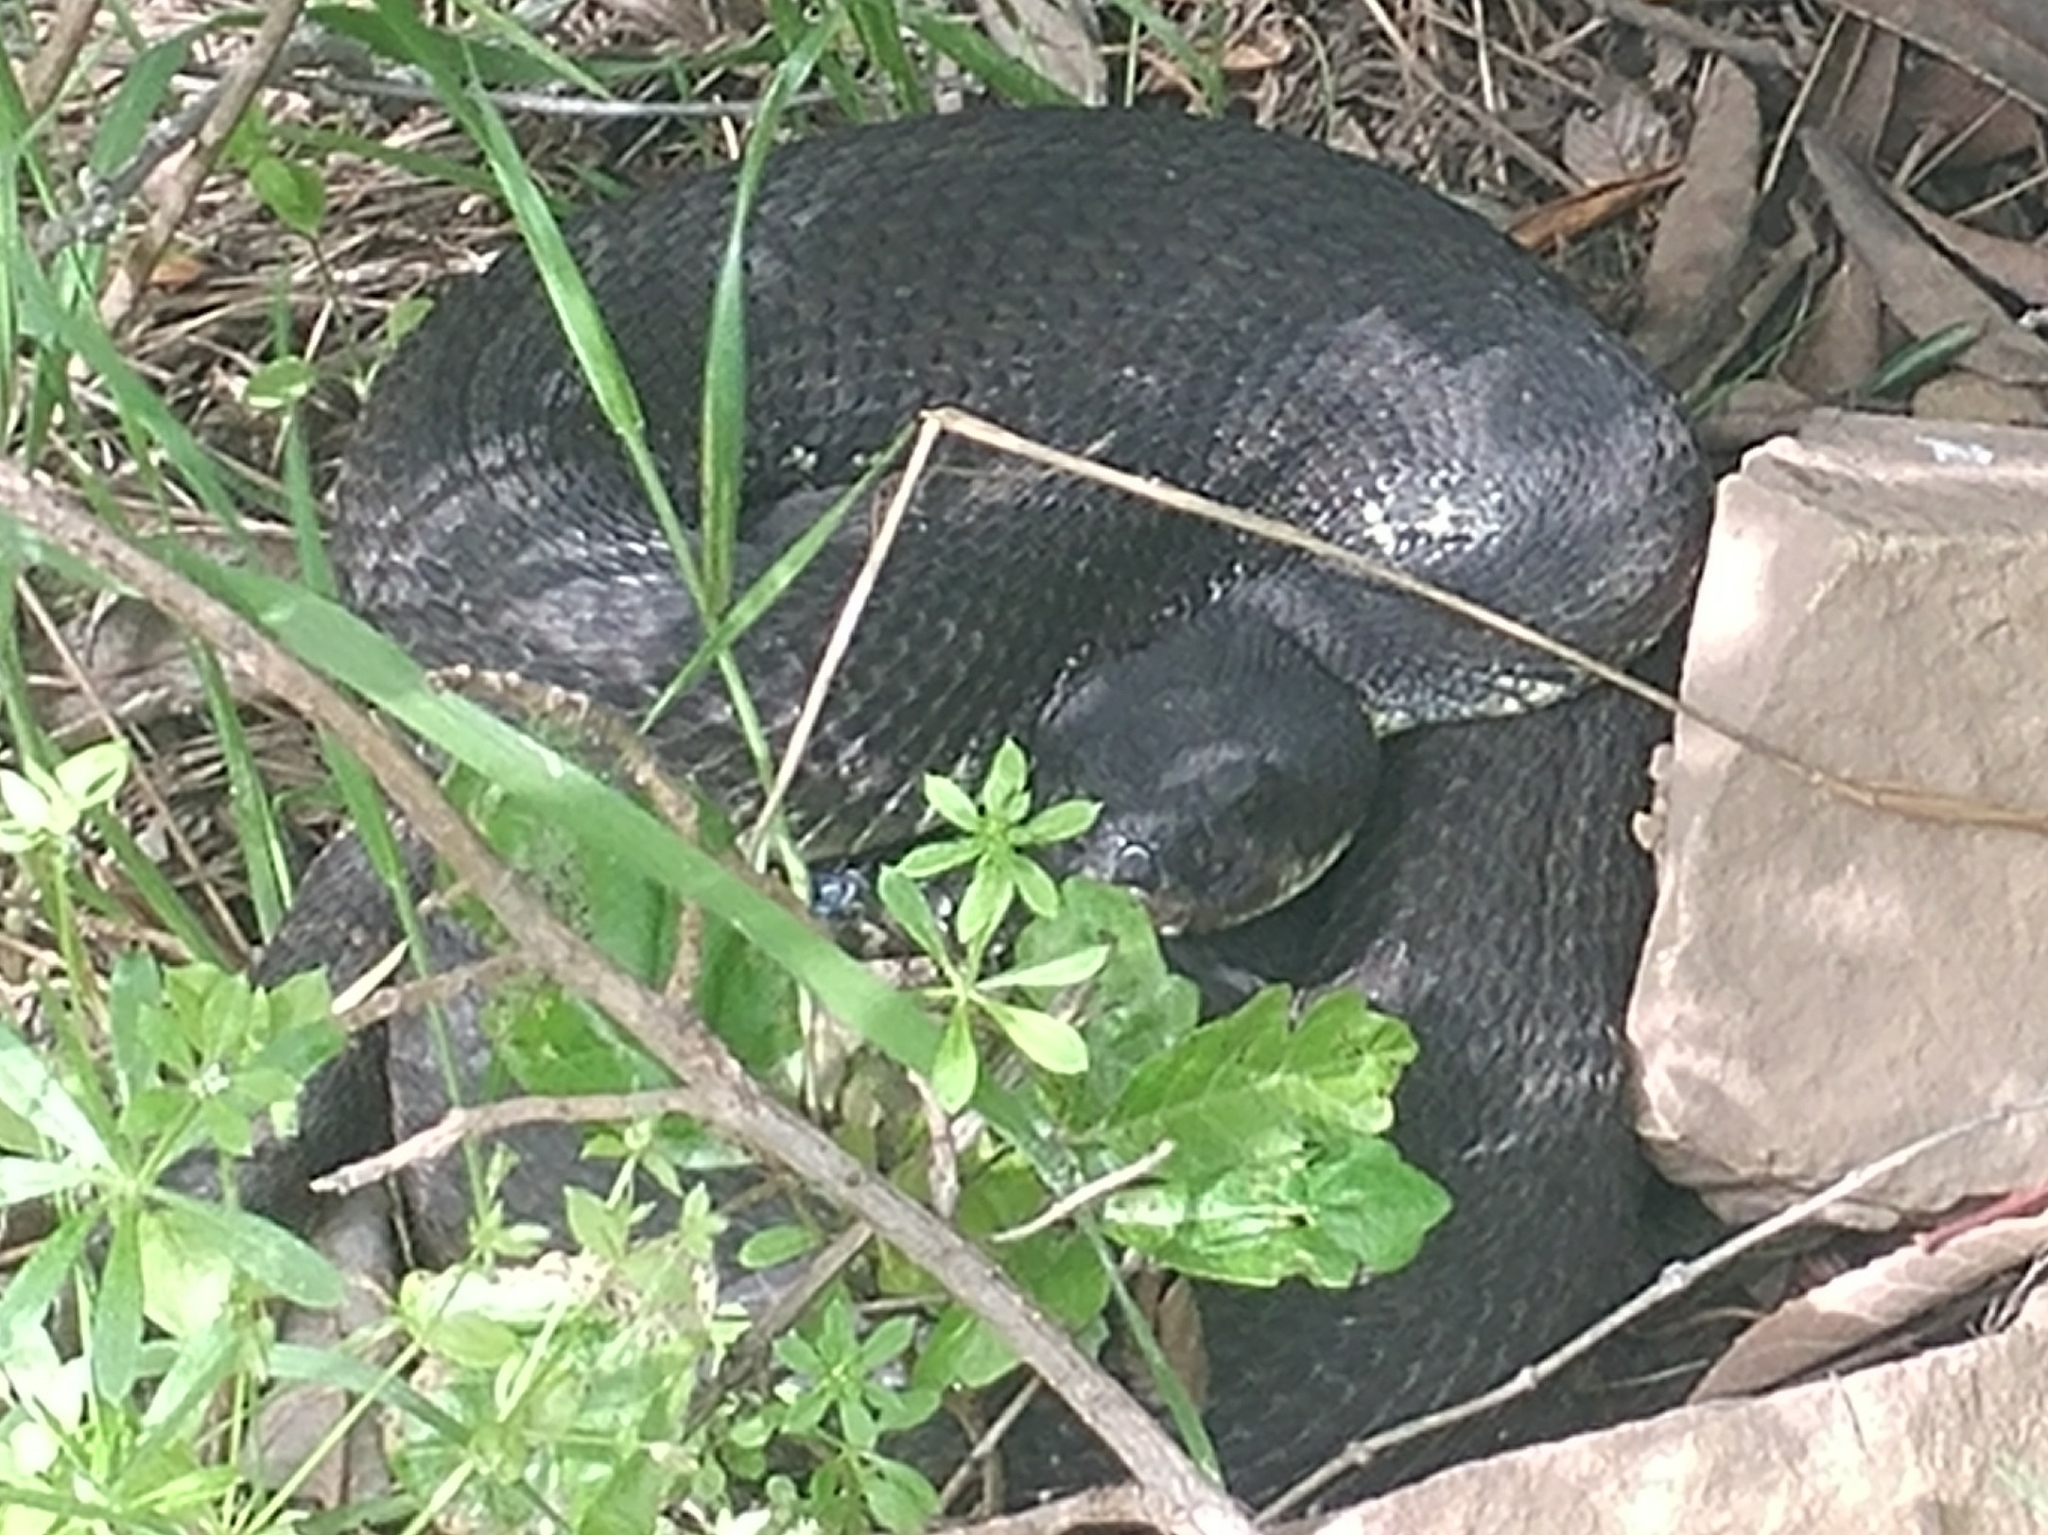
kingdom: Animalia
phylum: Chordata
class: Squamata
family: Viperidae
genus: Crotalus
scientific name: Crotalus oreganus
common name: Abyssus
